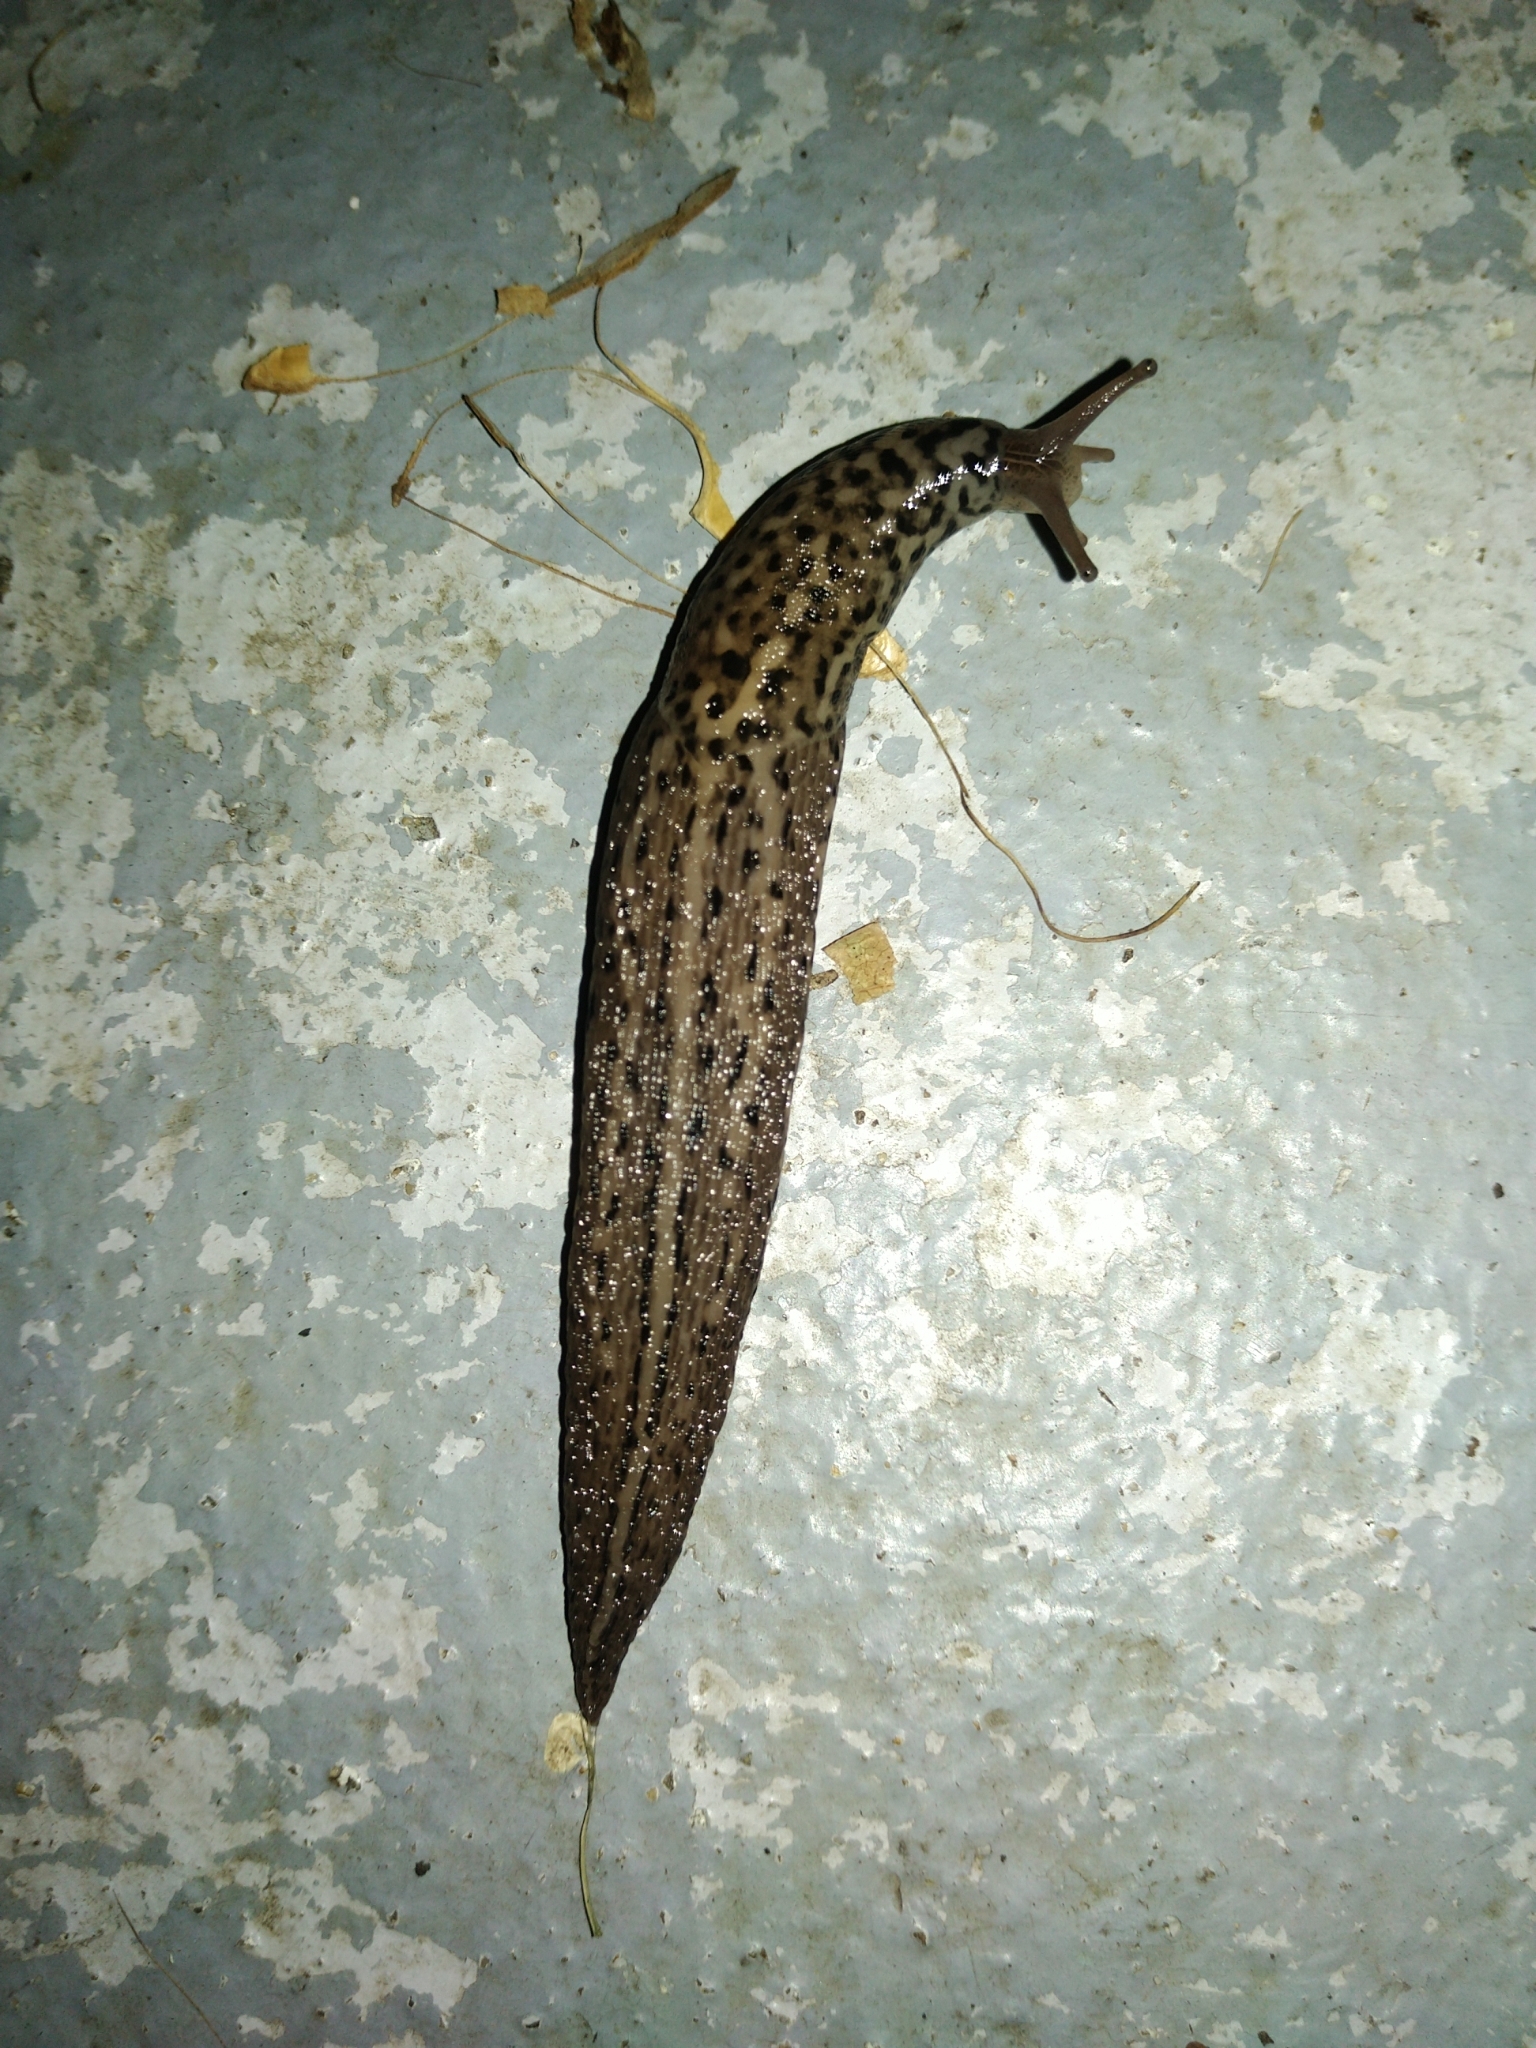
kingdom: Animalia
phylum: Mollusca
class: Gastropoda
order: Stylommatophora
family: Limacidae
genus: Limax
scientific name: Limax maximus
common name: Great grey slug
